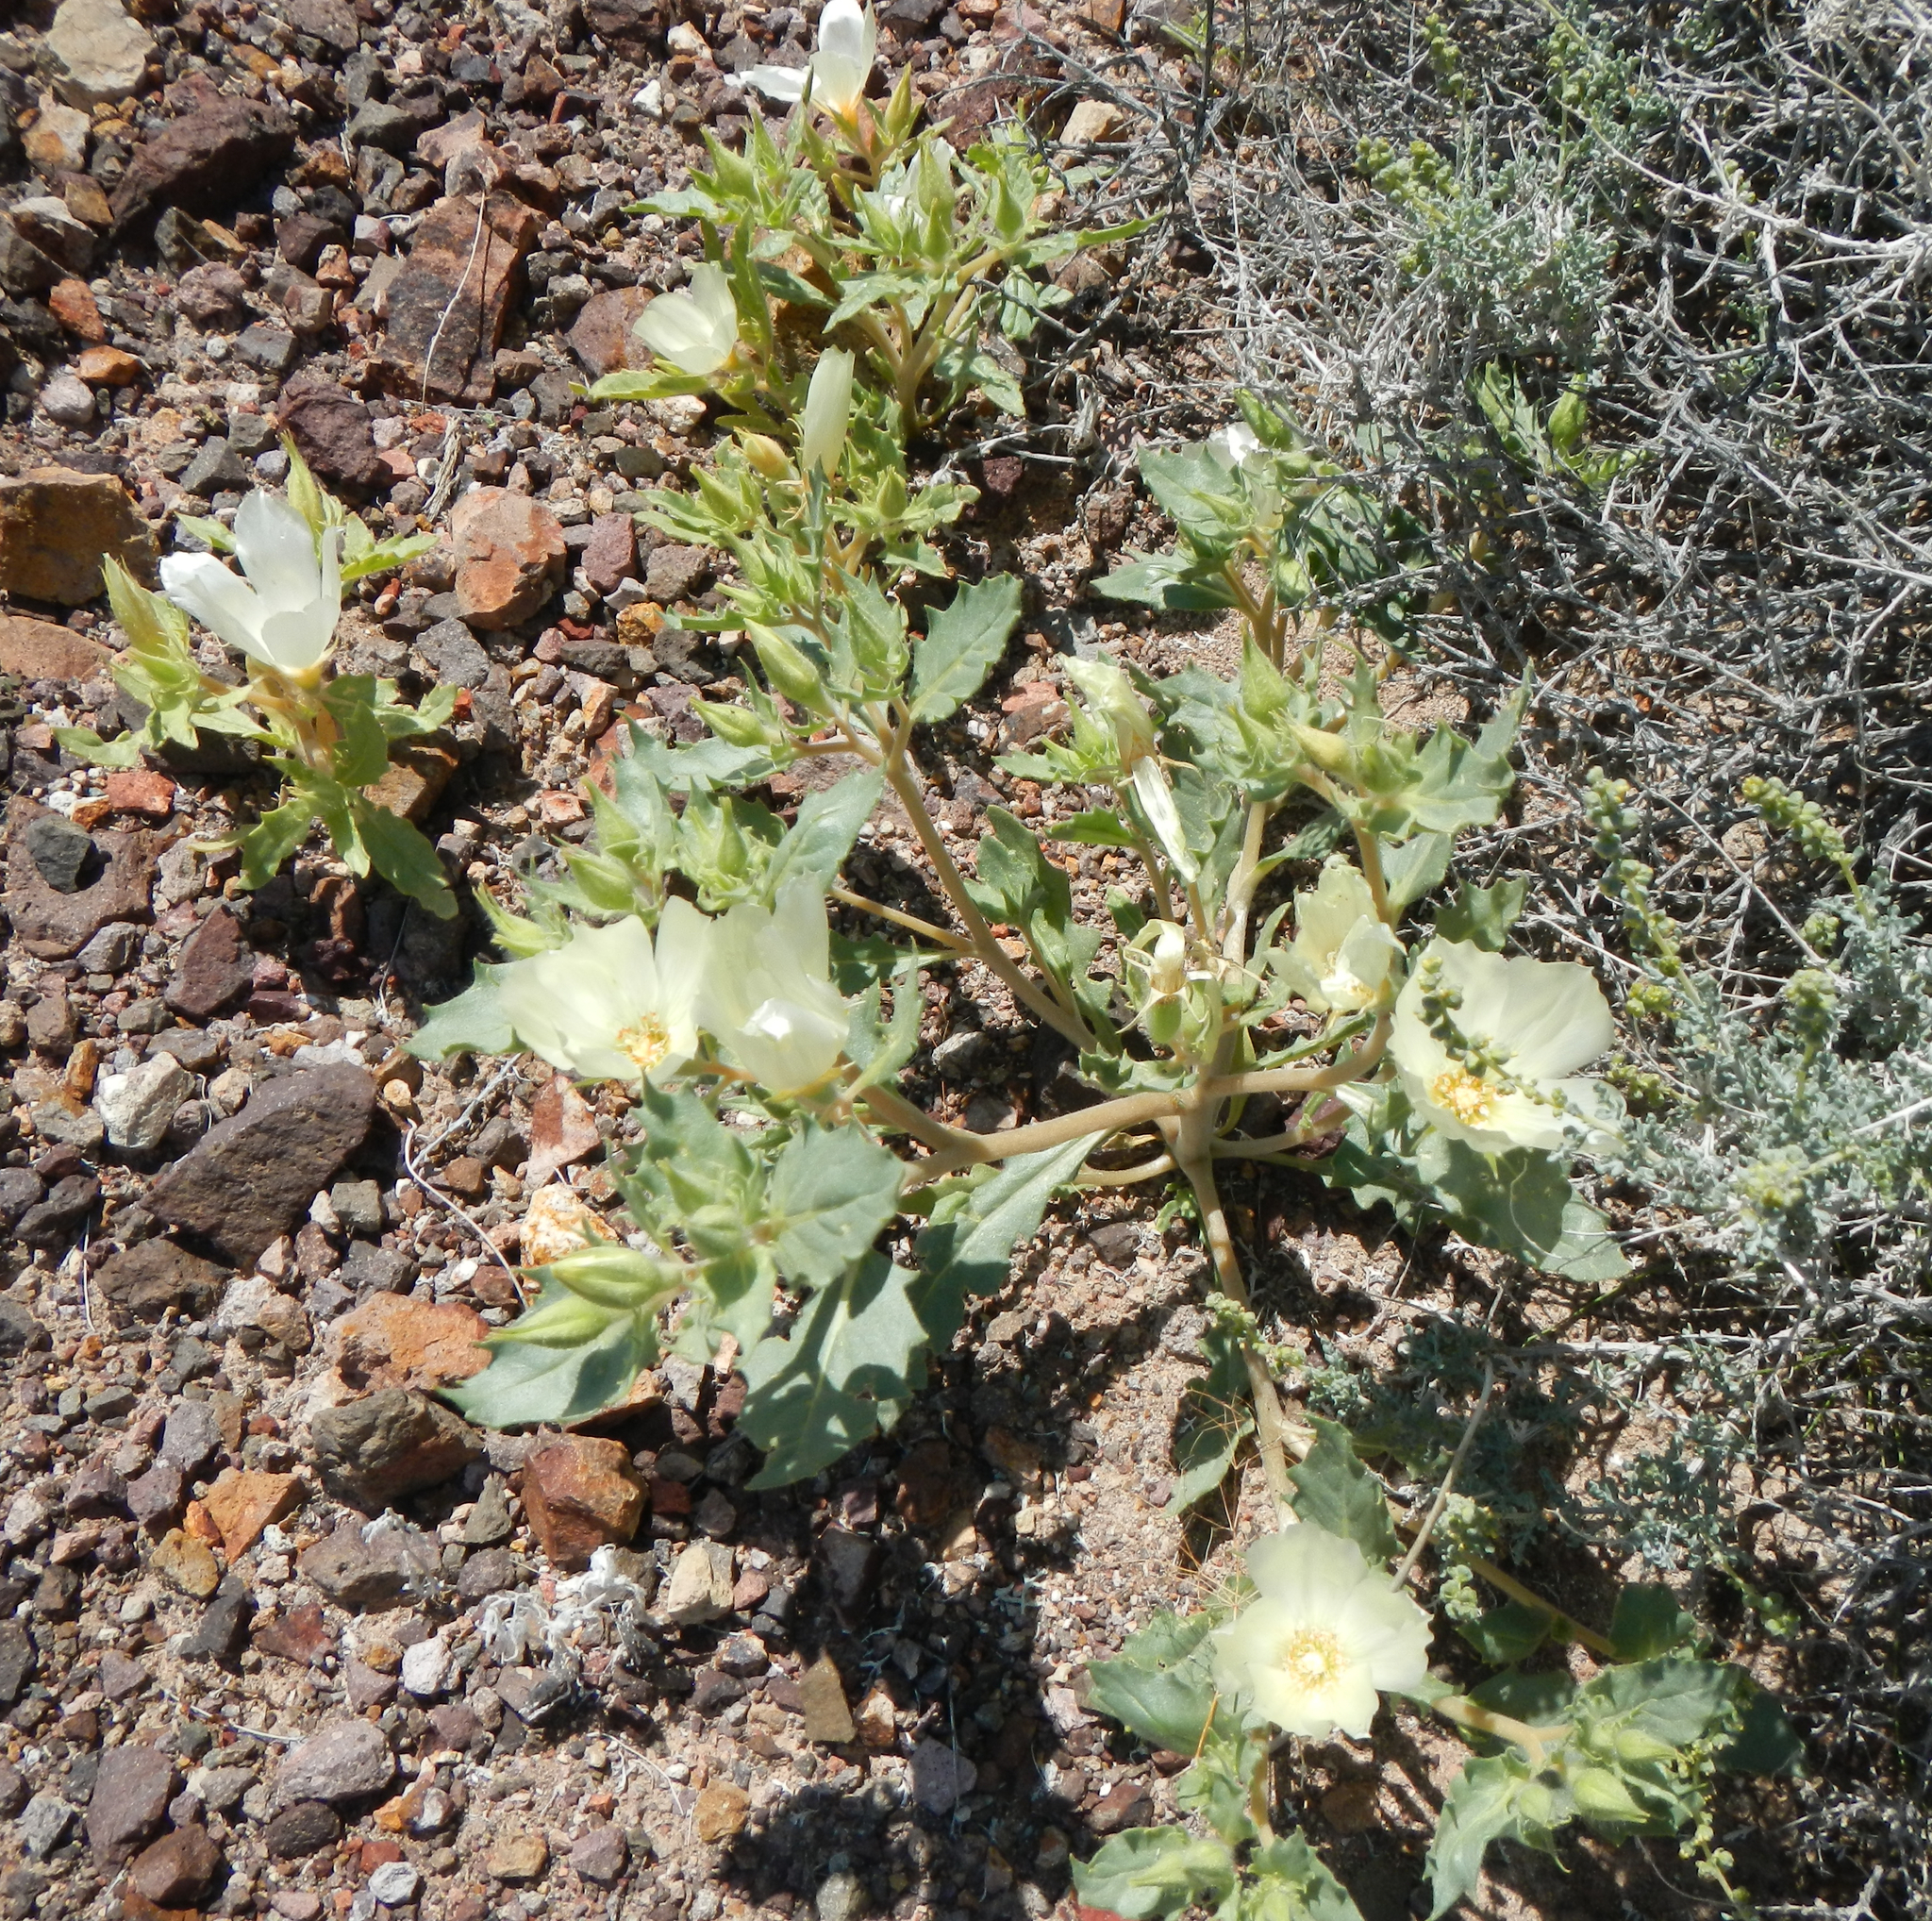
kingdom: Plantae
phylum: Tracheophyta
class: Magnoliopsida
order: Cornales
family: Loasaceae
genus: Mentzelia
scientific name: Mentzelia tricuspis
